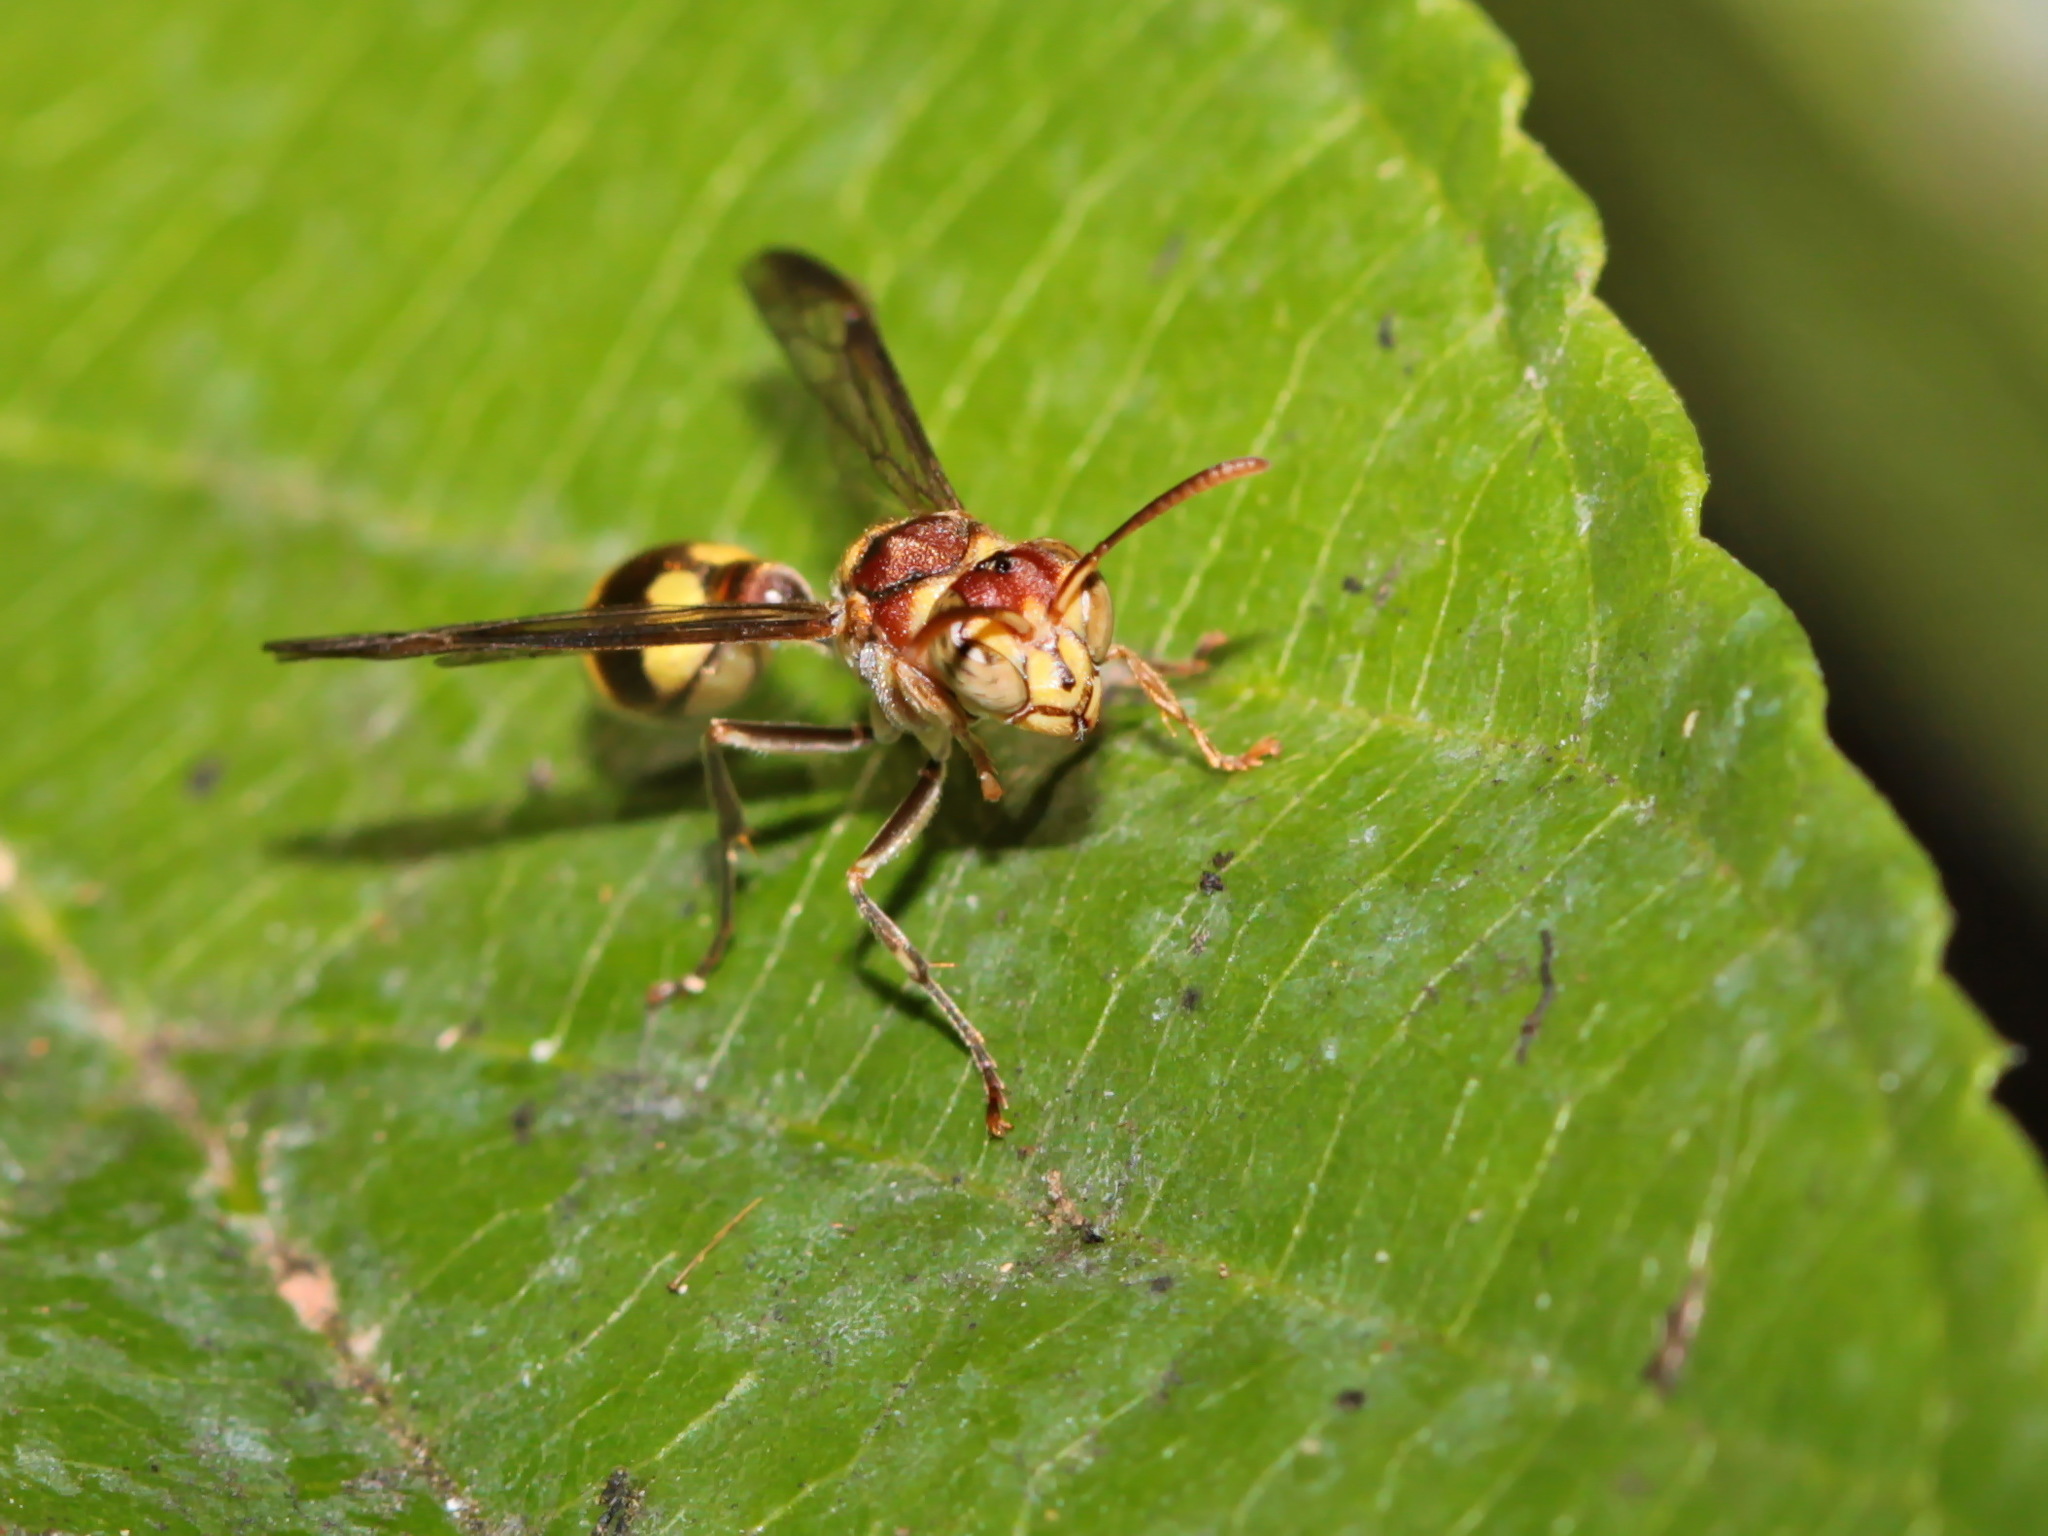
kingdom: Animalia
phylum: Arthropoda
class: Insecta
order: Hymenoptera
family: Vespidae
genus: Ropalidia
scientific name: Ropalidia stigma
